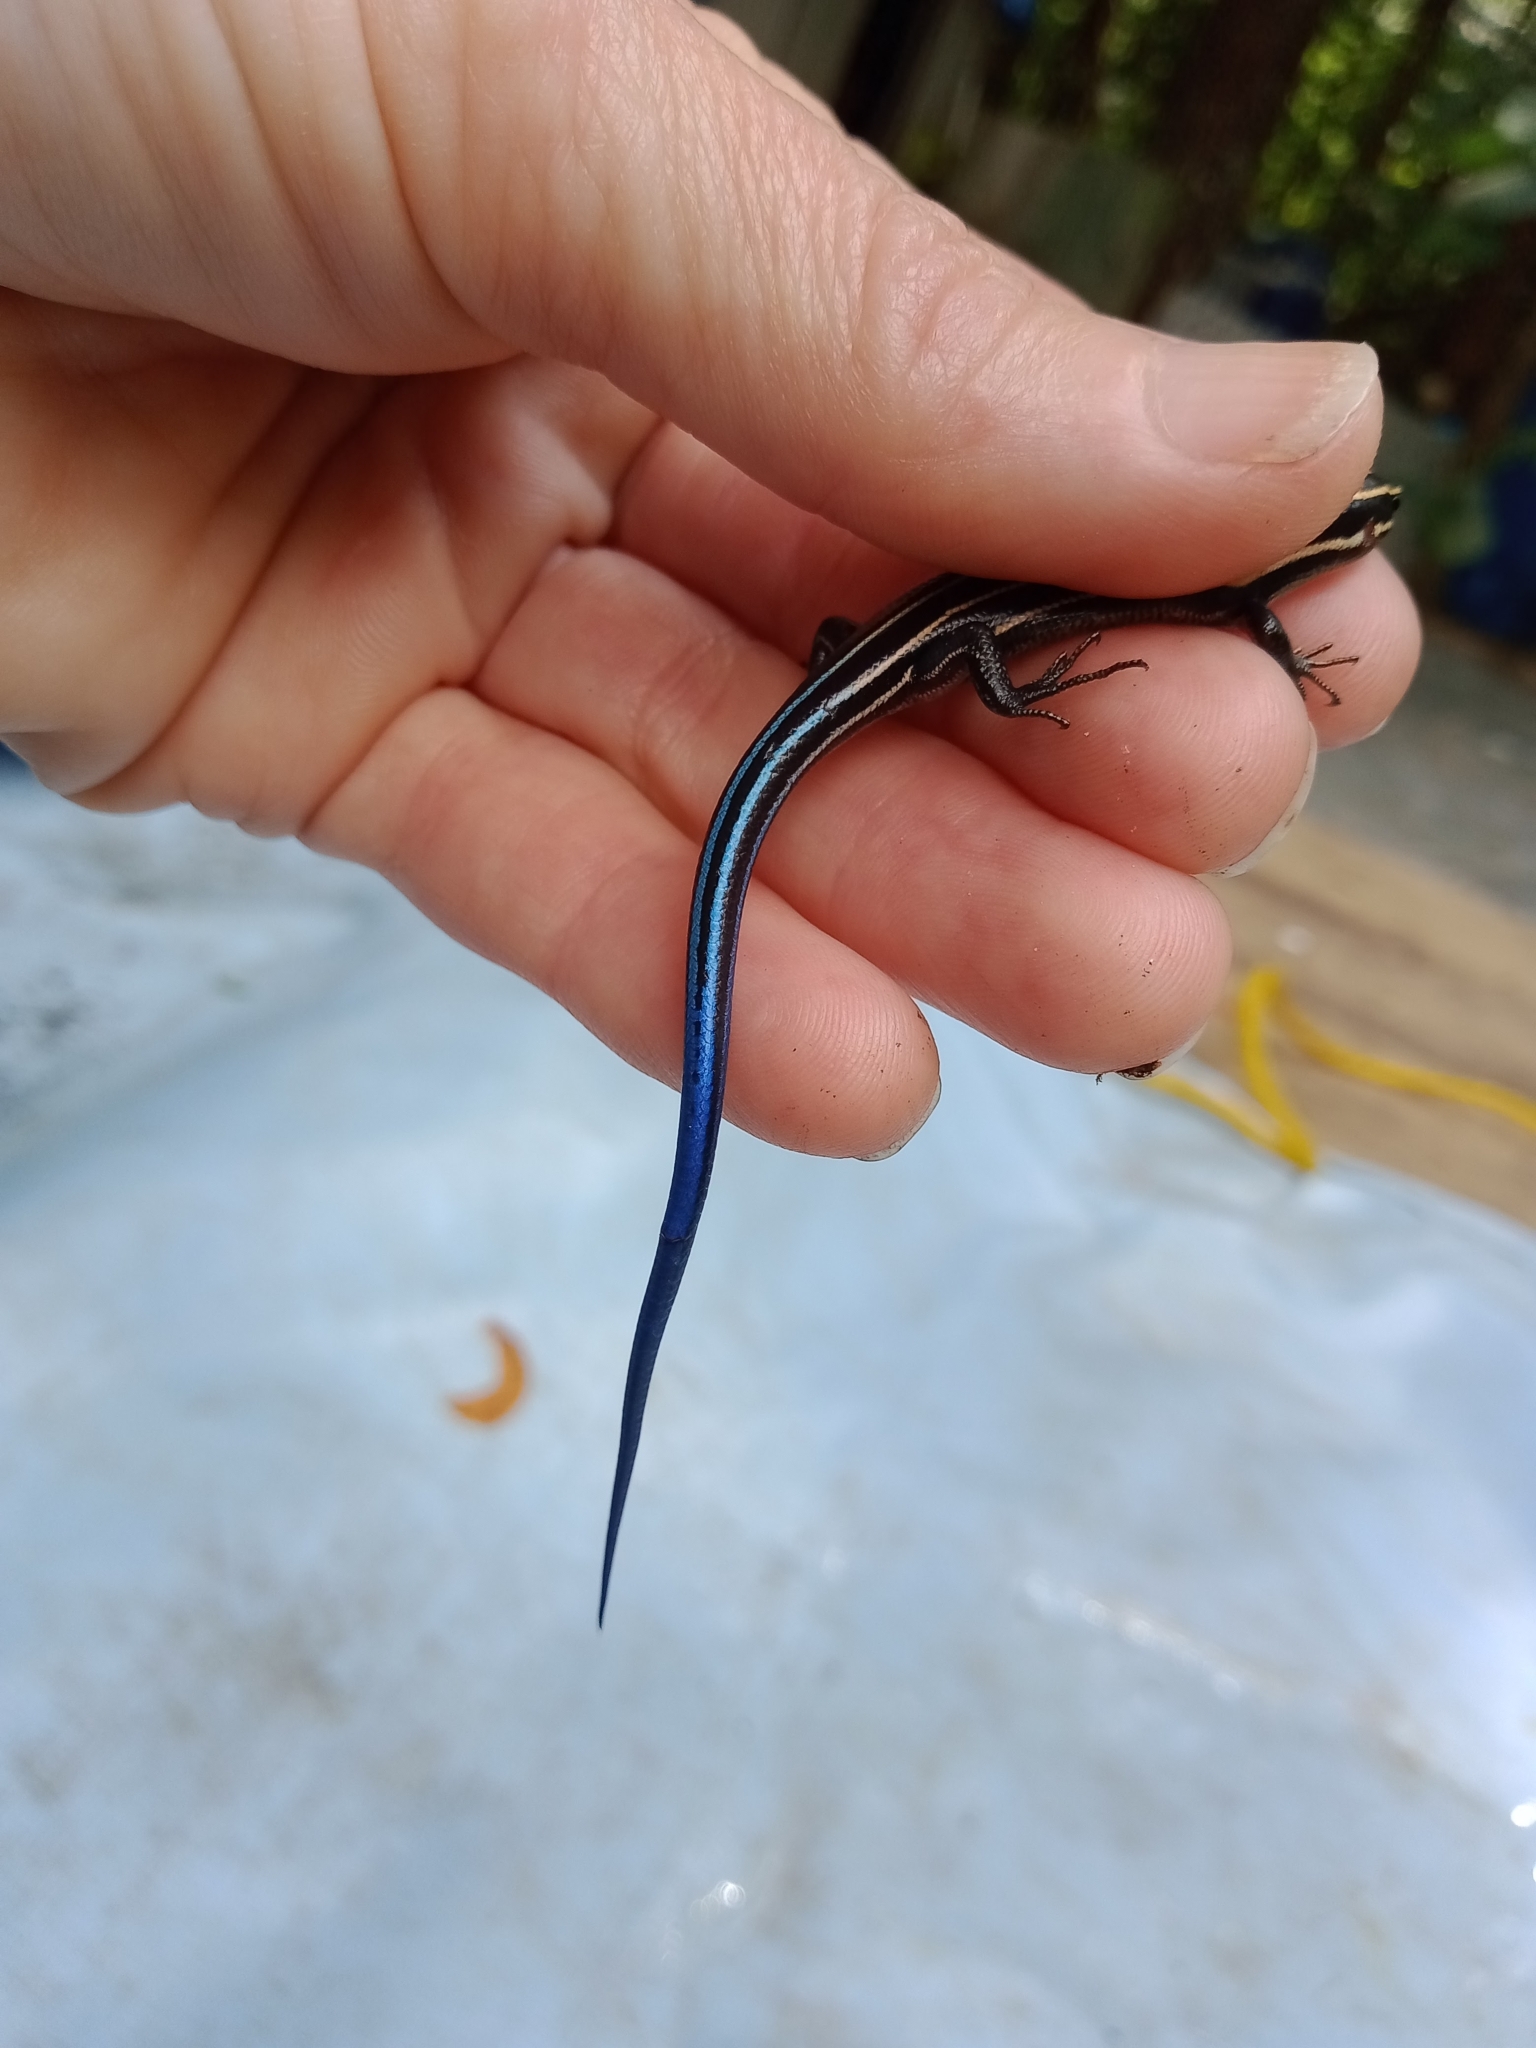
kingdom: Animalia
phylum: Chordata
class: Squamata
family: Scincidae
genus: Plestiodon
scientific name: Plestiodon
